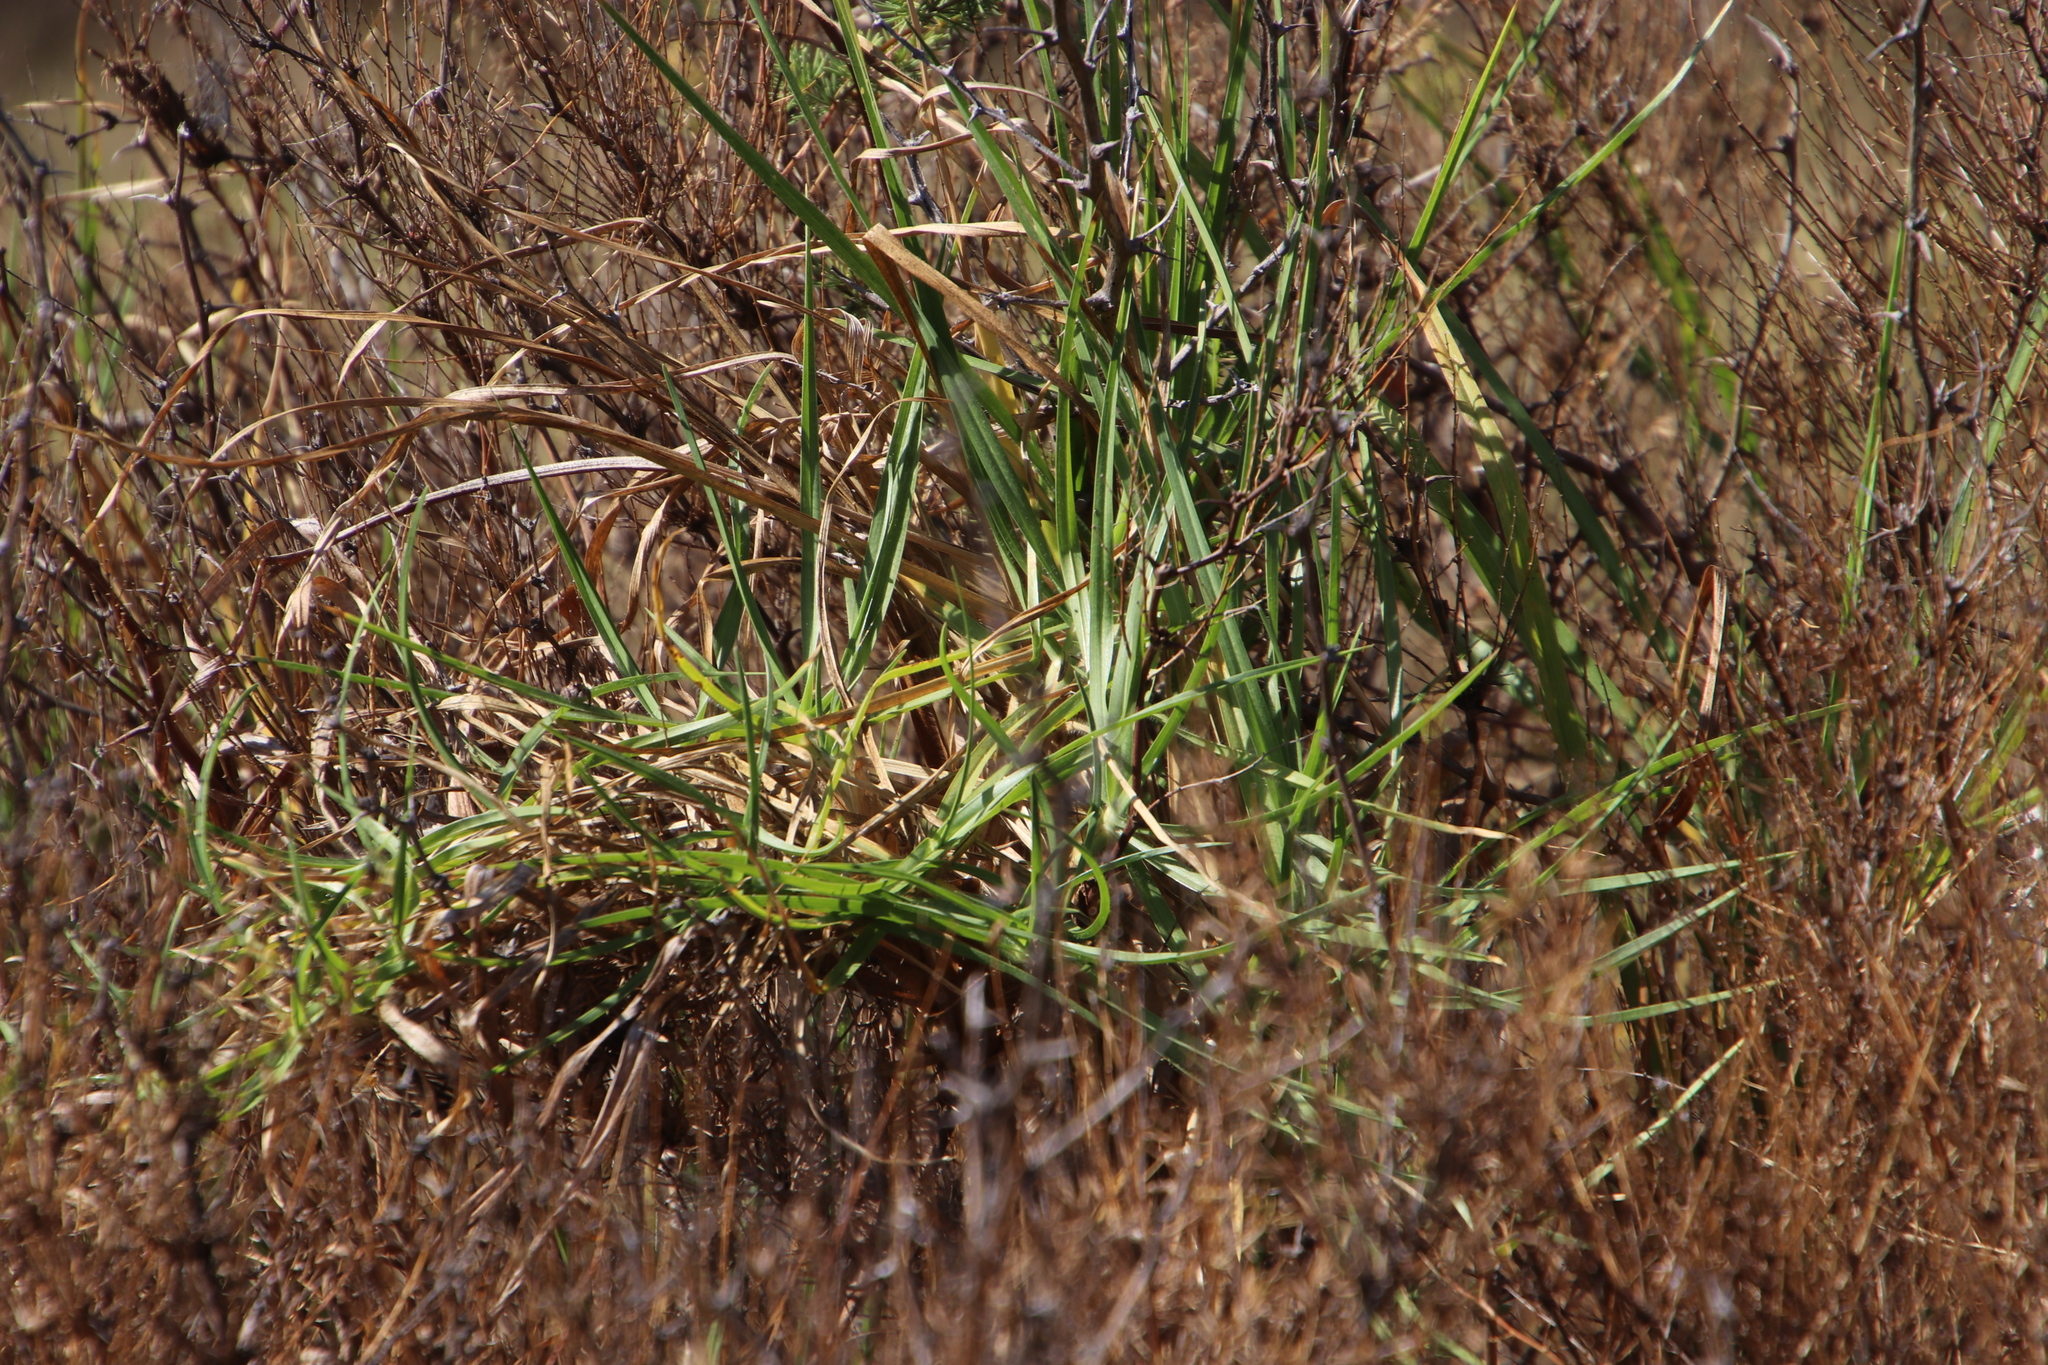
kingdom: Plantae
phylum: Tracheophyta
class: Liliopsida
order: Poales
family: Poaceae
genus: Cenchrus
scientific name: Cenchrus clandestinus
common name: Kikuyugrass
